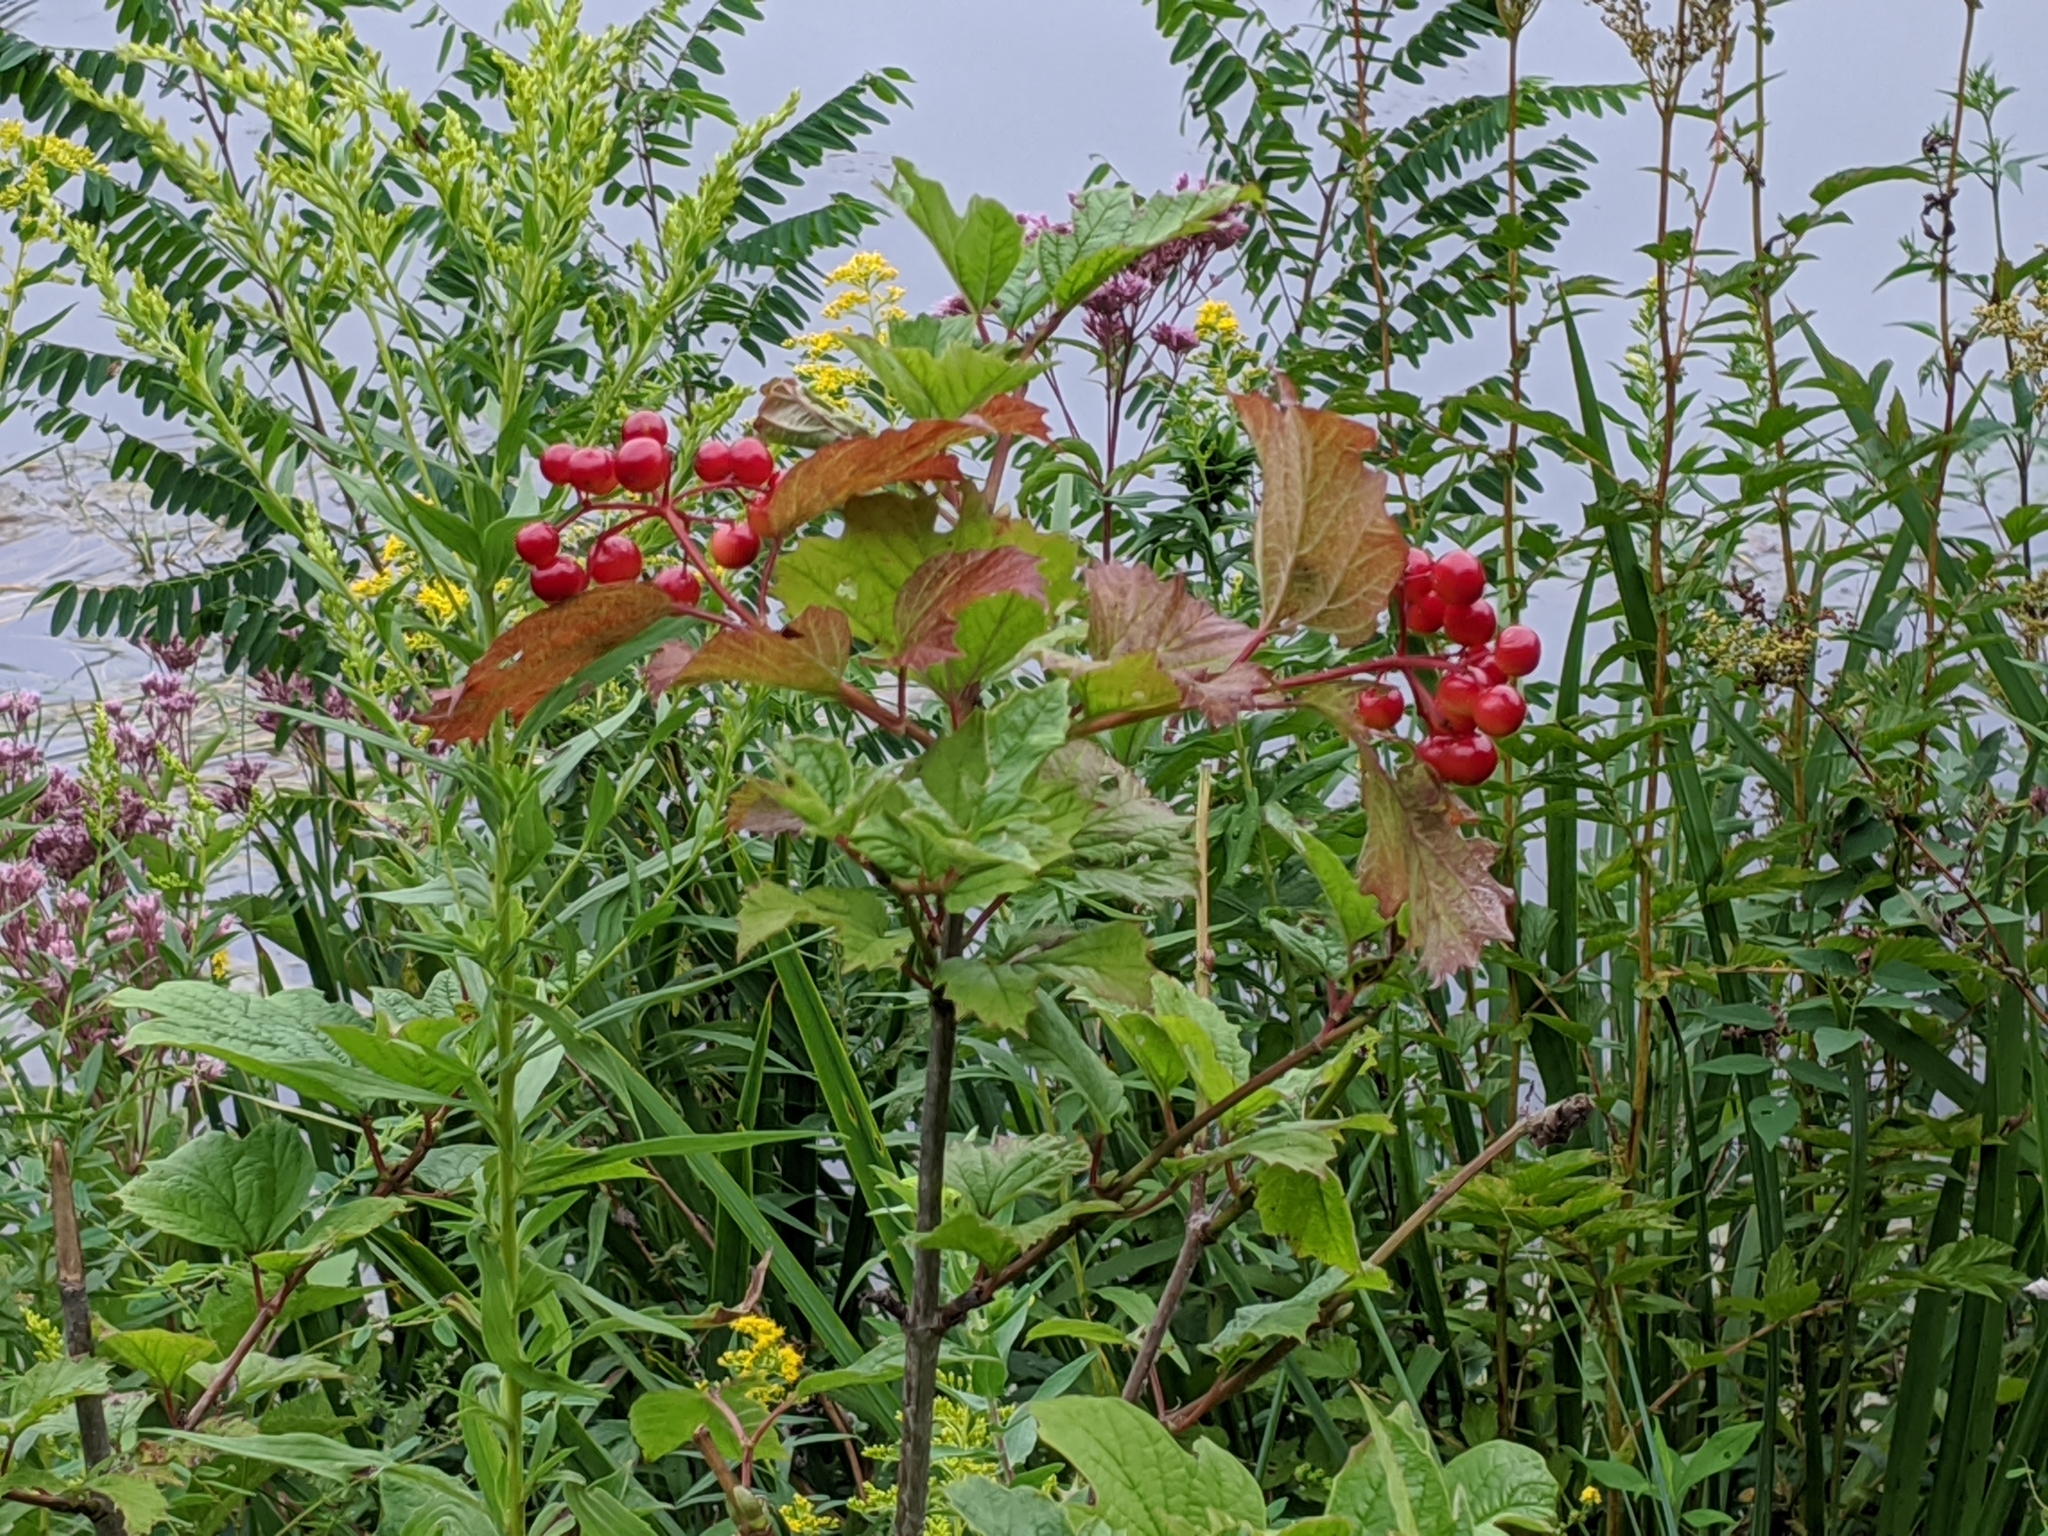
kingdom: Plantae
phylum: Tracheophyta
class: Magnoliopsida
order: Dipsacales
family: Viburnaceae
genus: Viburnum
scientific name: Viburnum opulus
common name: Guelder-rose
